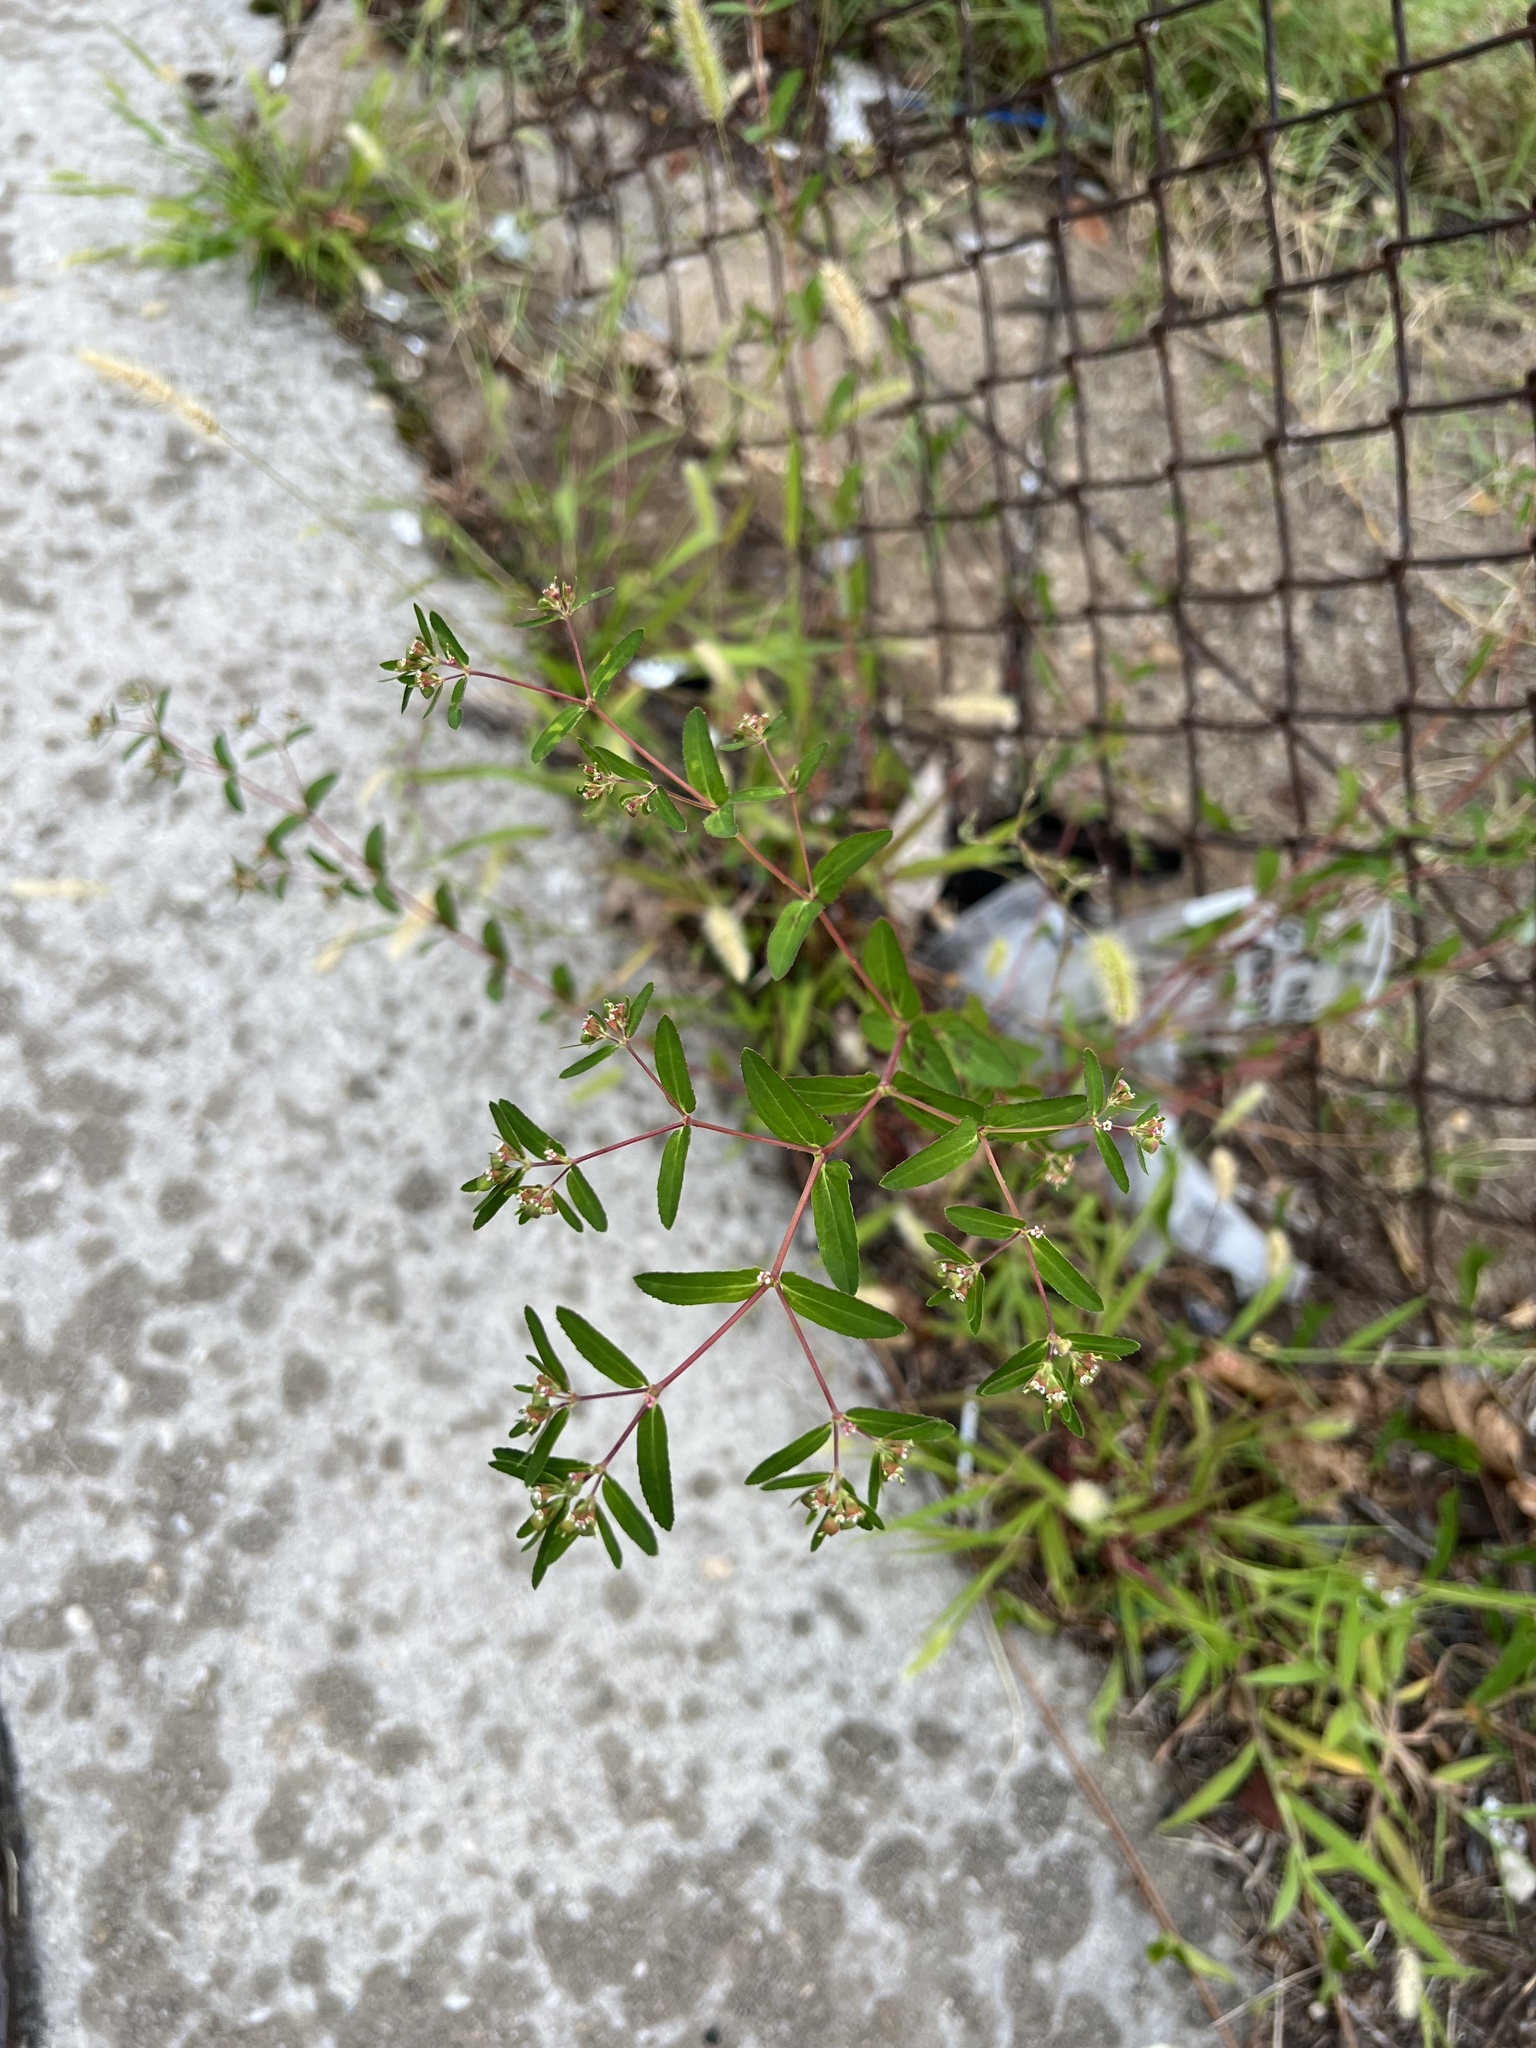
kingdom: Plantae
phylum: Tracheophyta
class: Magnoliopsida
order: Malpighiales
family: Euphorbiaceae
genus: Euphorbia
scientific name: Euphorbia nutans
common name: Eyebane
